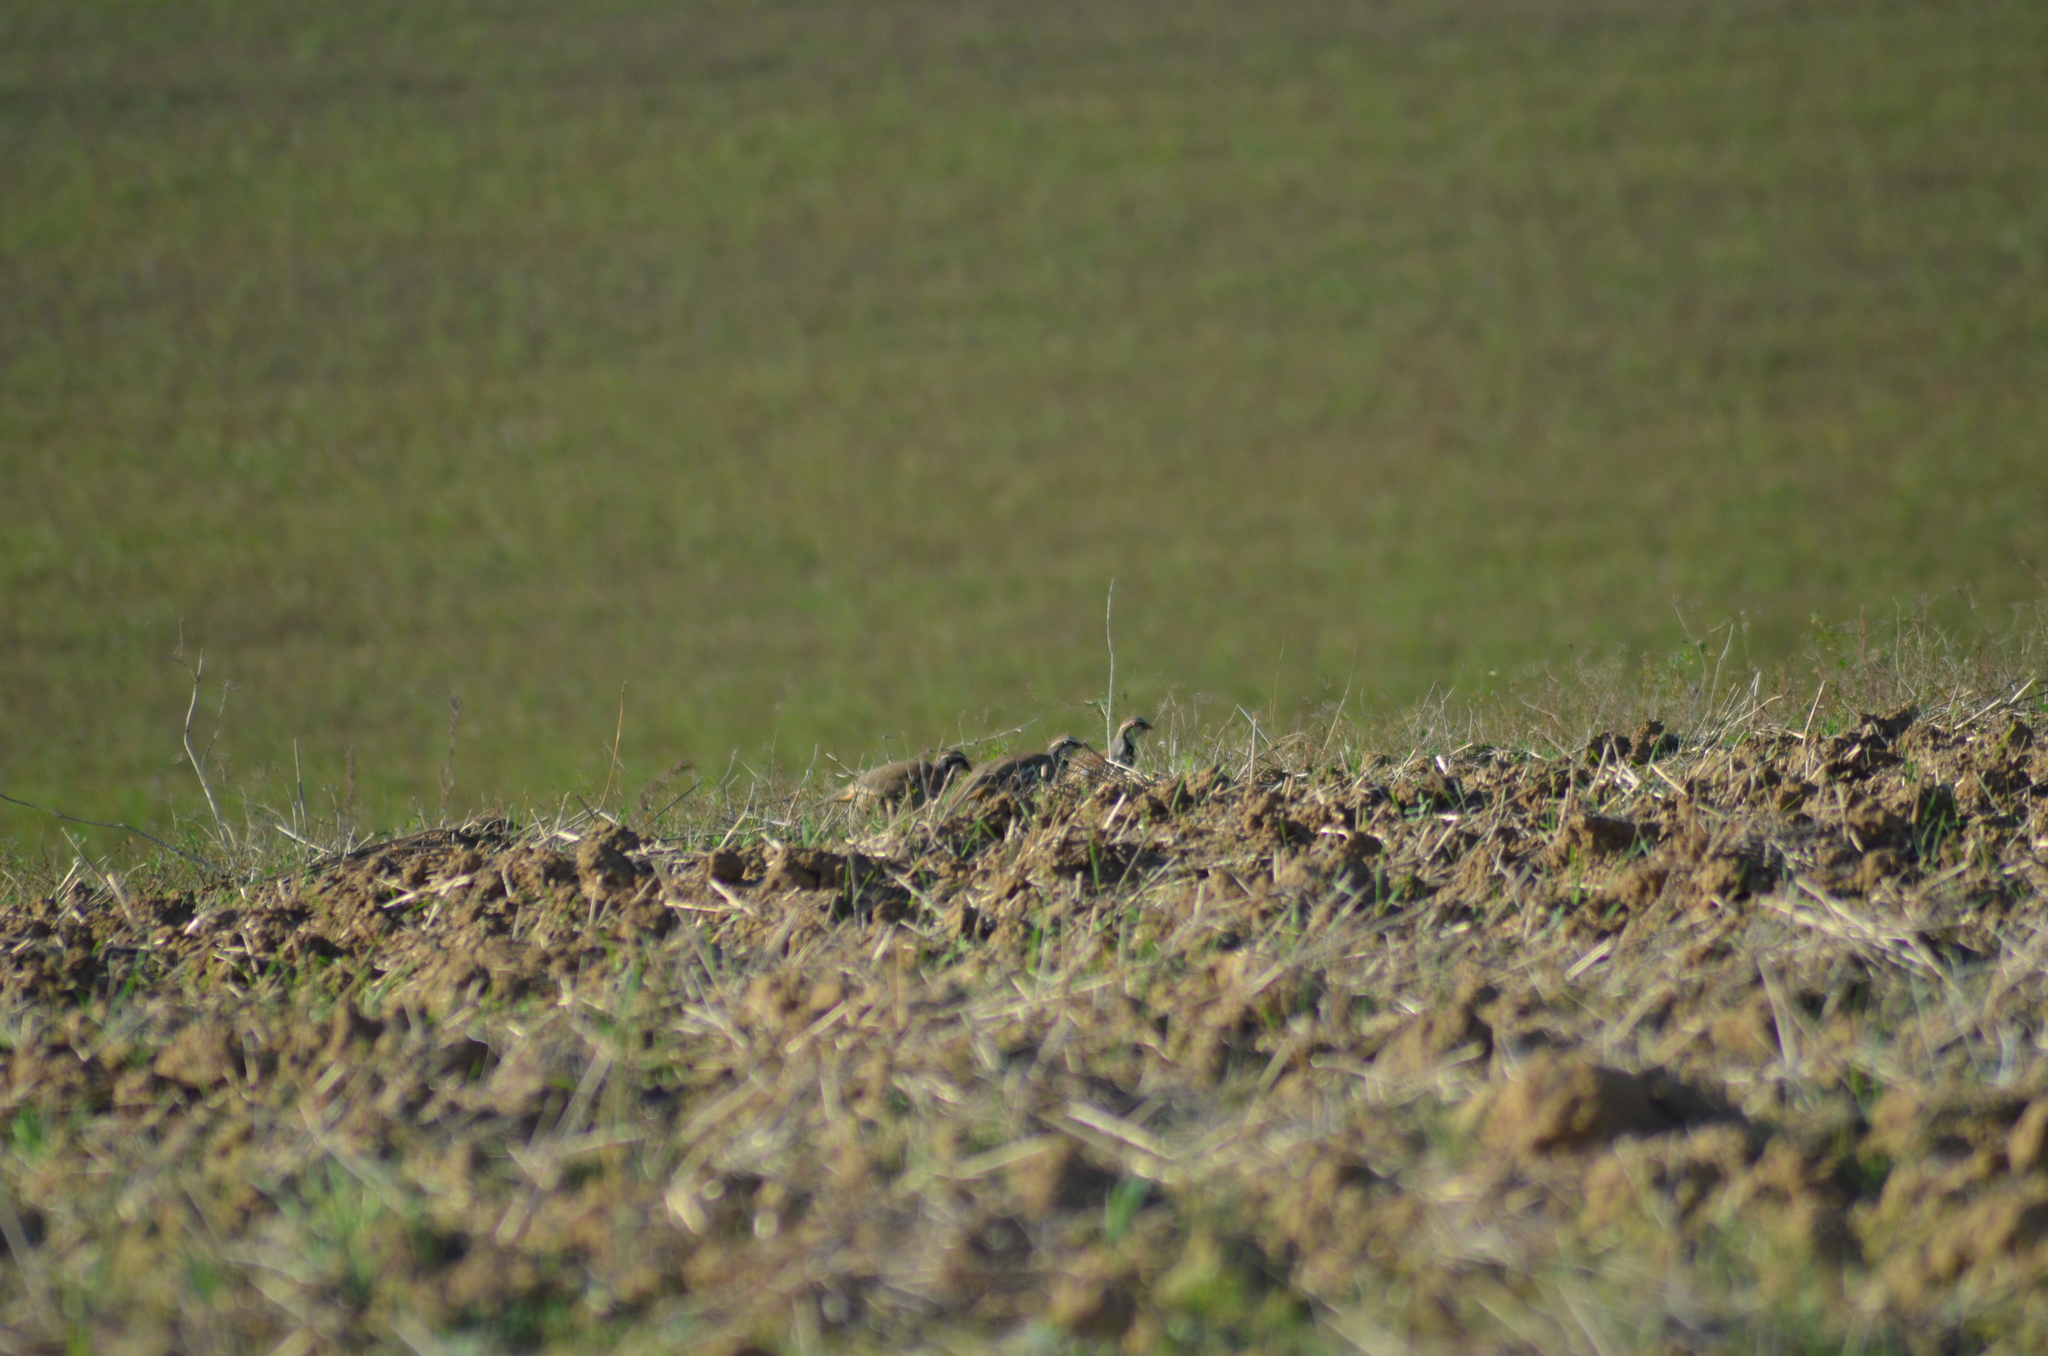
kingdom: Animalia
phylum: Chordata
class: Aves
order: Galliformes
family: Phasianidae
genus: Alectoris
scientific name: Alectoris rufa
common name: Red-legged partridge
